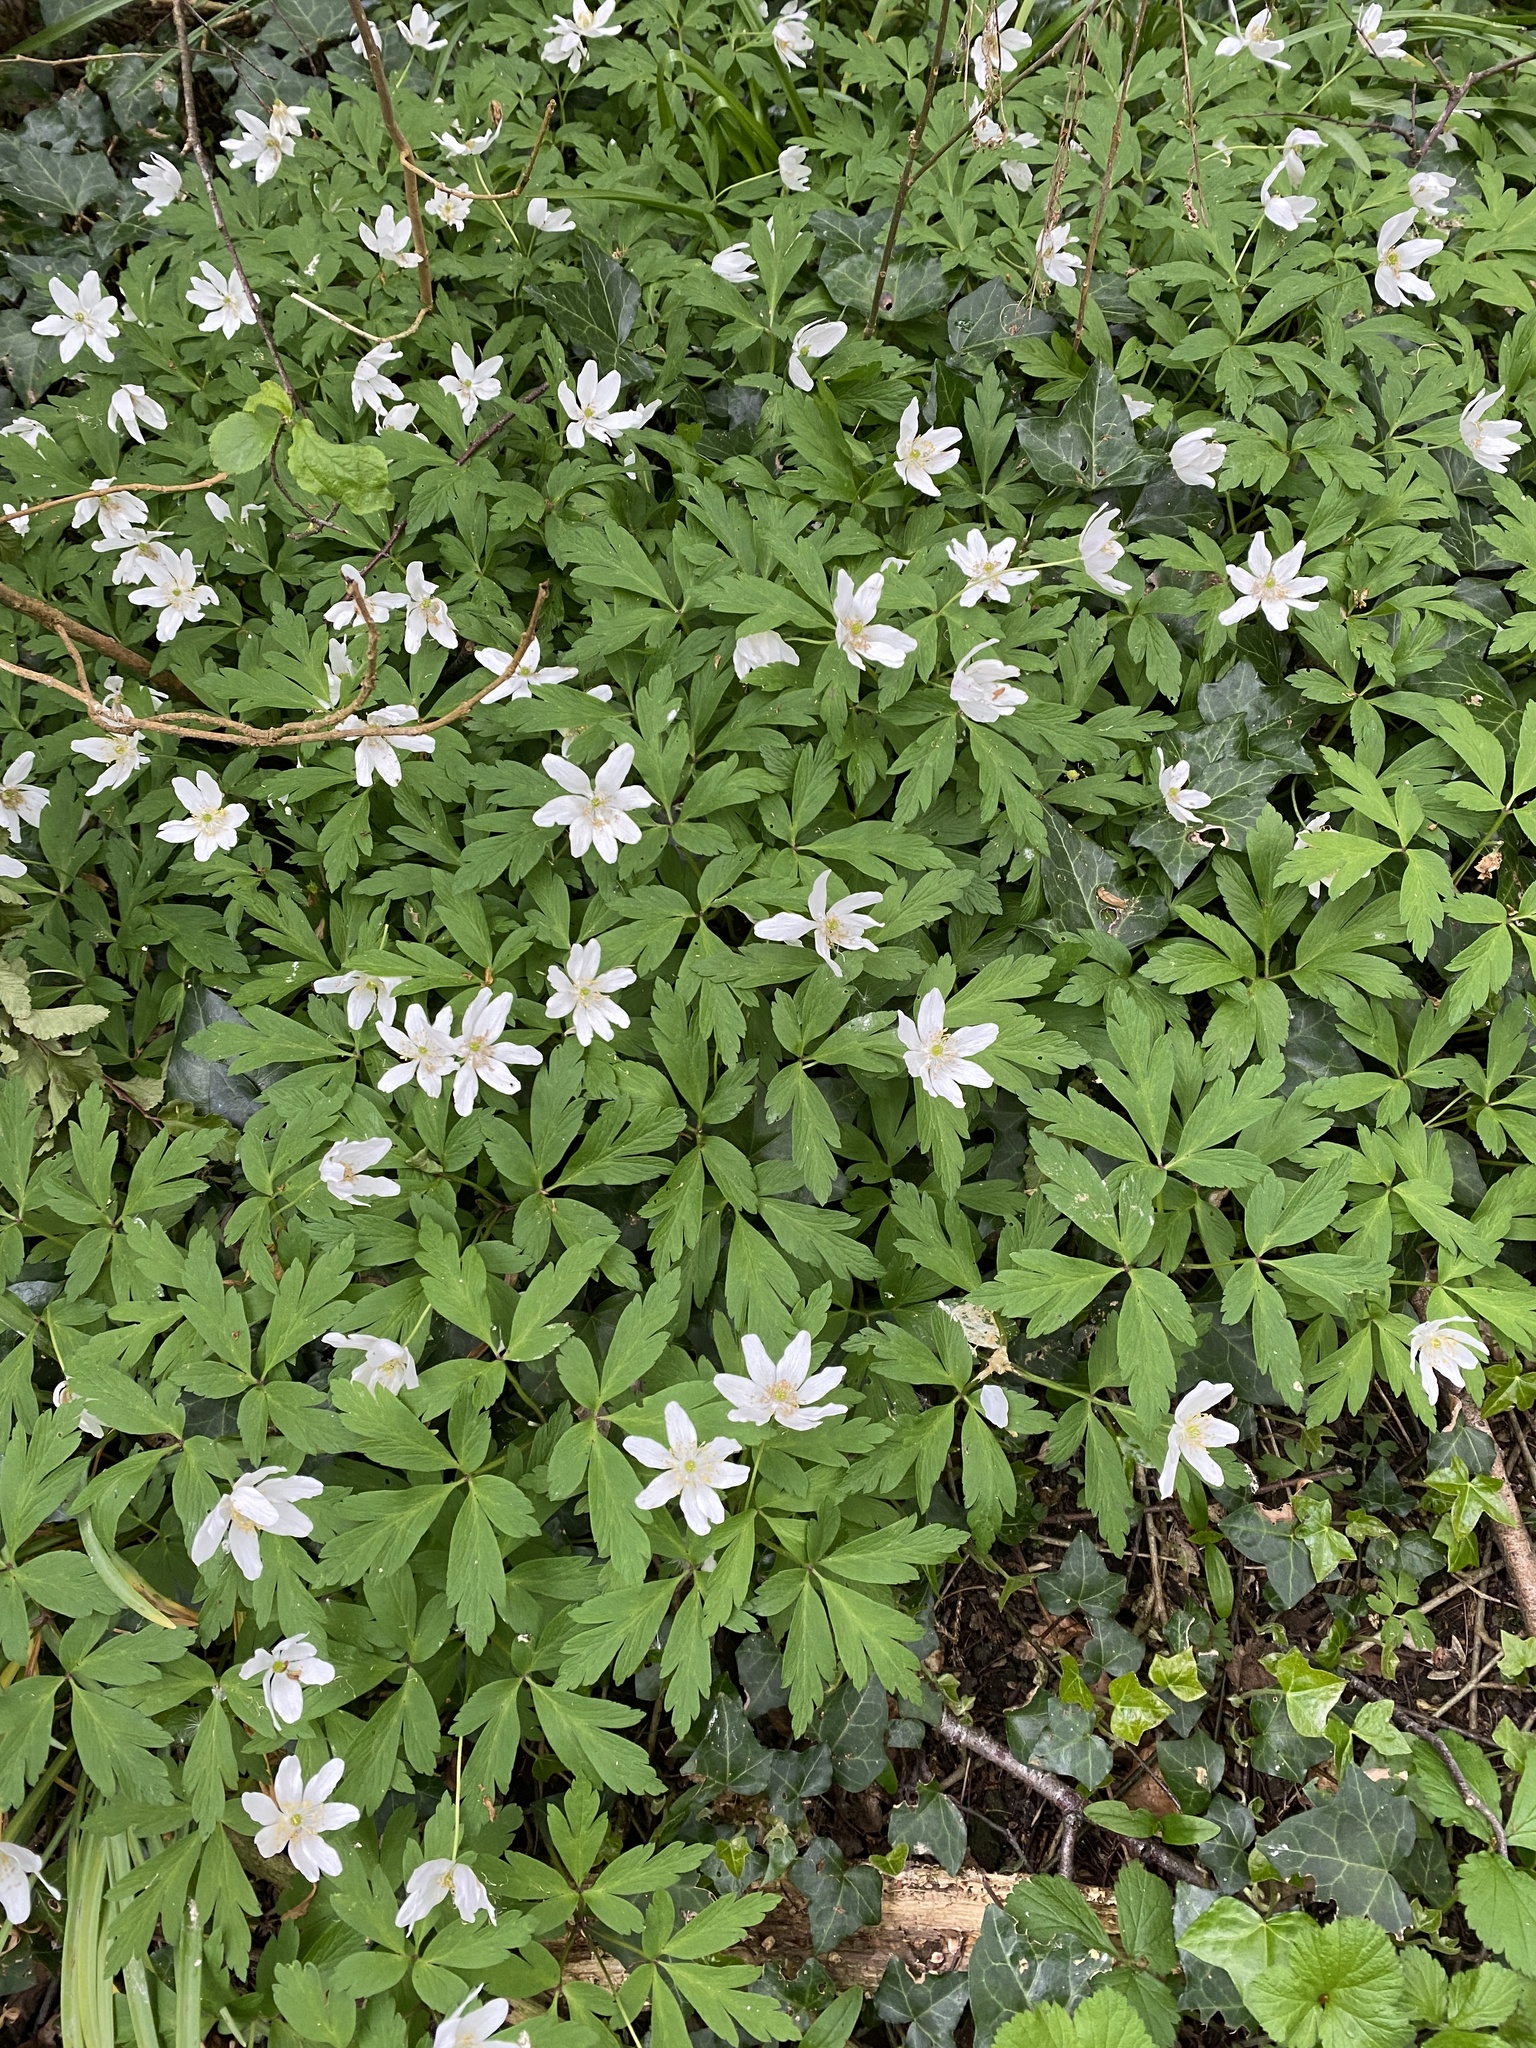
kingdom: Plantae
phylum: Tracheophyta
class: Magnoliopsida
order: Ranunculales
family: Ranunculaceae
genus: Anemone
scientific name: Anemone nemorosa
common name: Wood anemone
